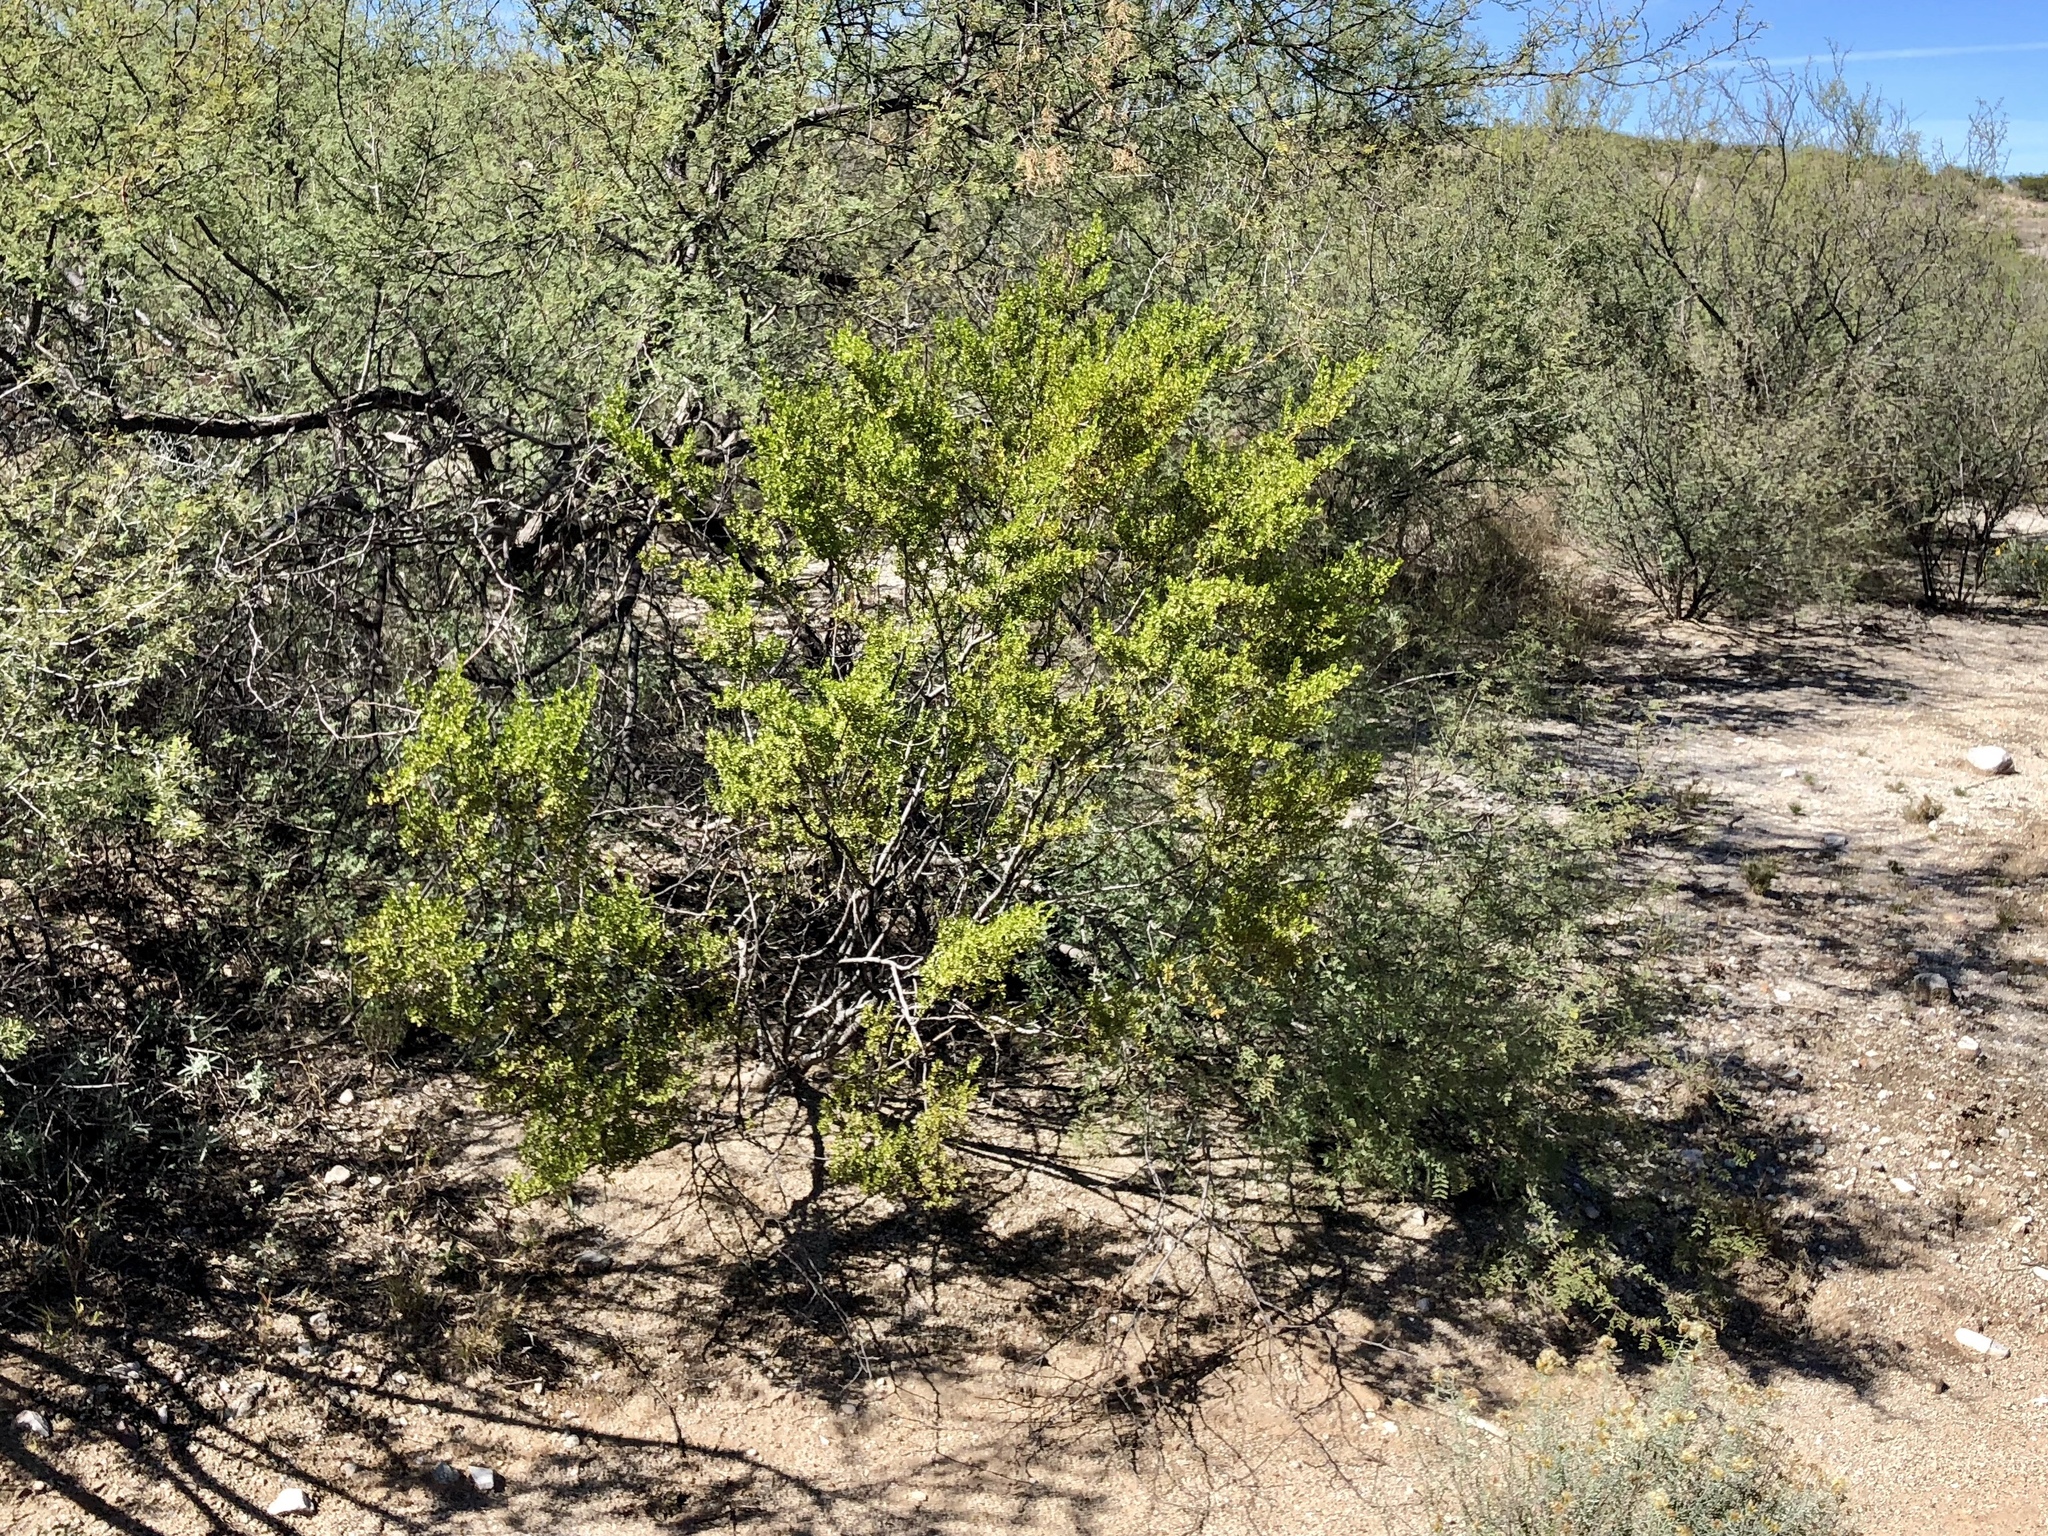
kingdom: Plantae
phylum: Tracheophyta
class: Magnoliopsida
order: Zygophyllales
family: Zygophyllaceae
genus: Larrea
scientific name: Larrea tridentata
